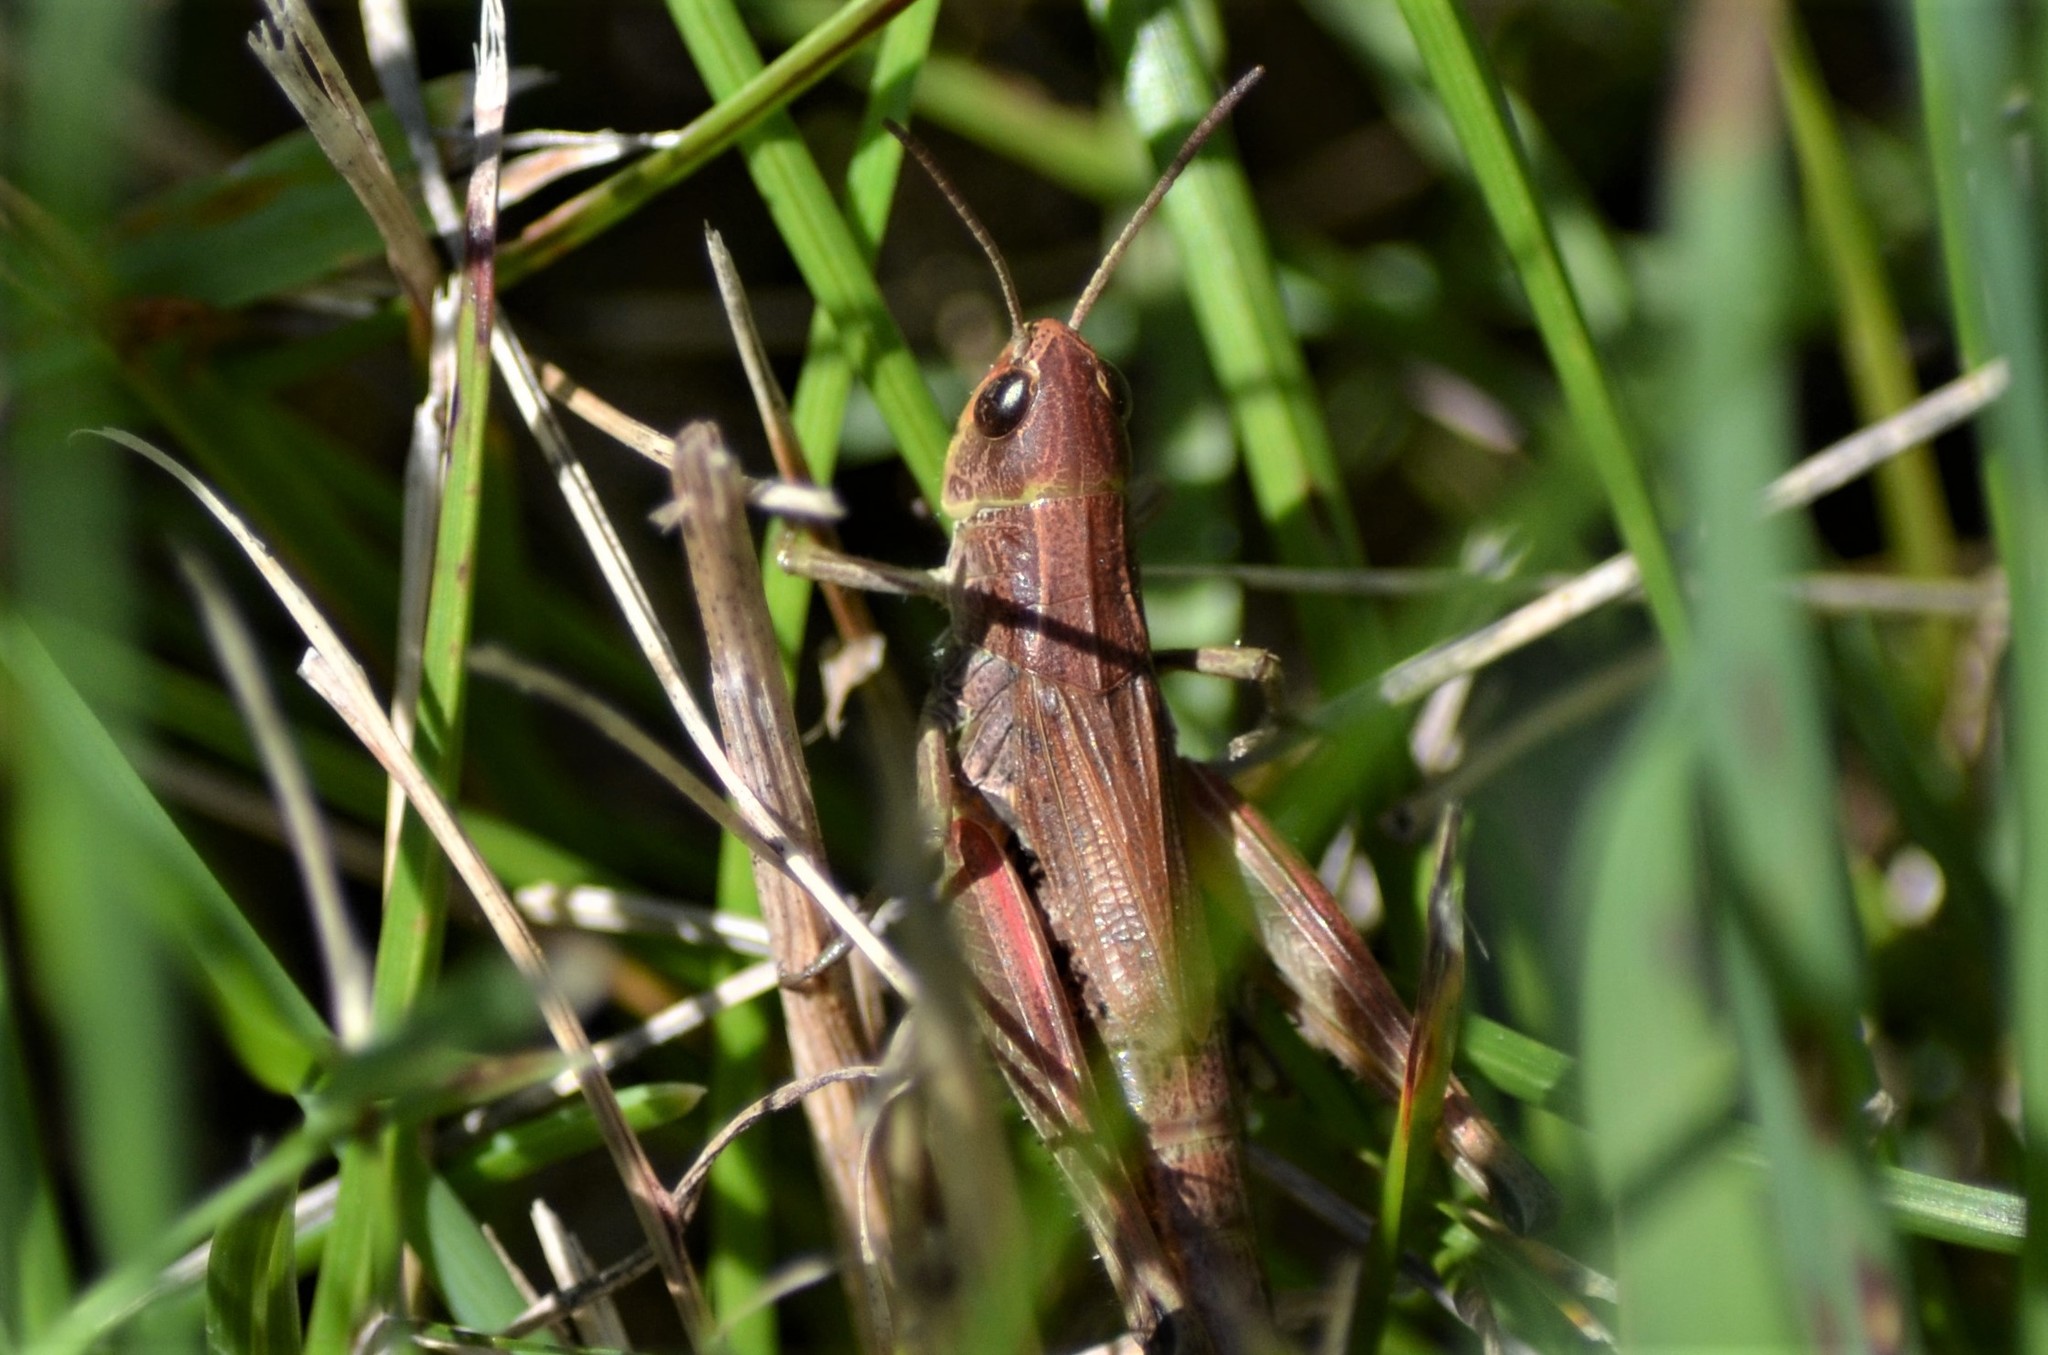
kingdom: Animalia
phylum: Arthropoda
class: Insecta
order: Orthoptera
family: Acrididae
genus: Pseudochorthippus
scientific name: Pseudochorthippus parallelus
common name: Meadow grasshopper
